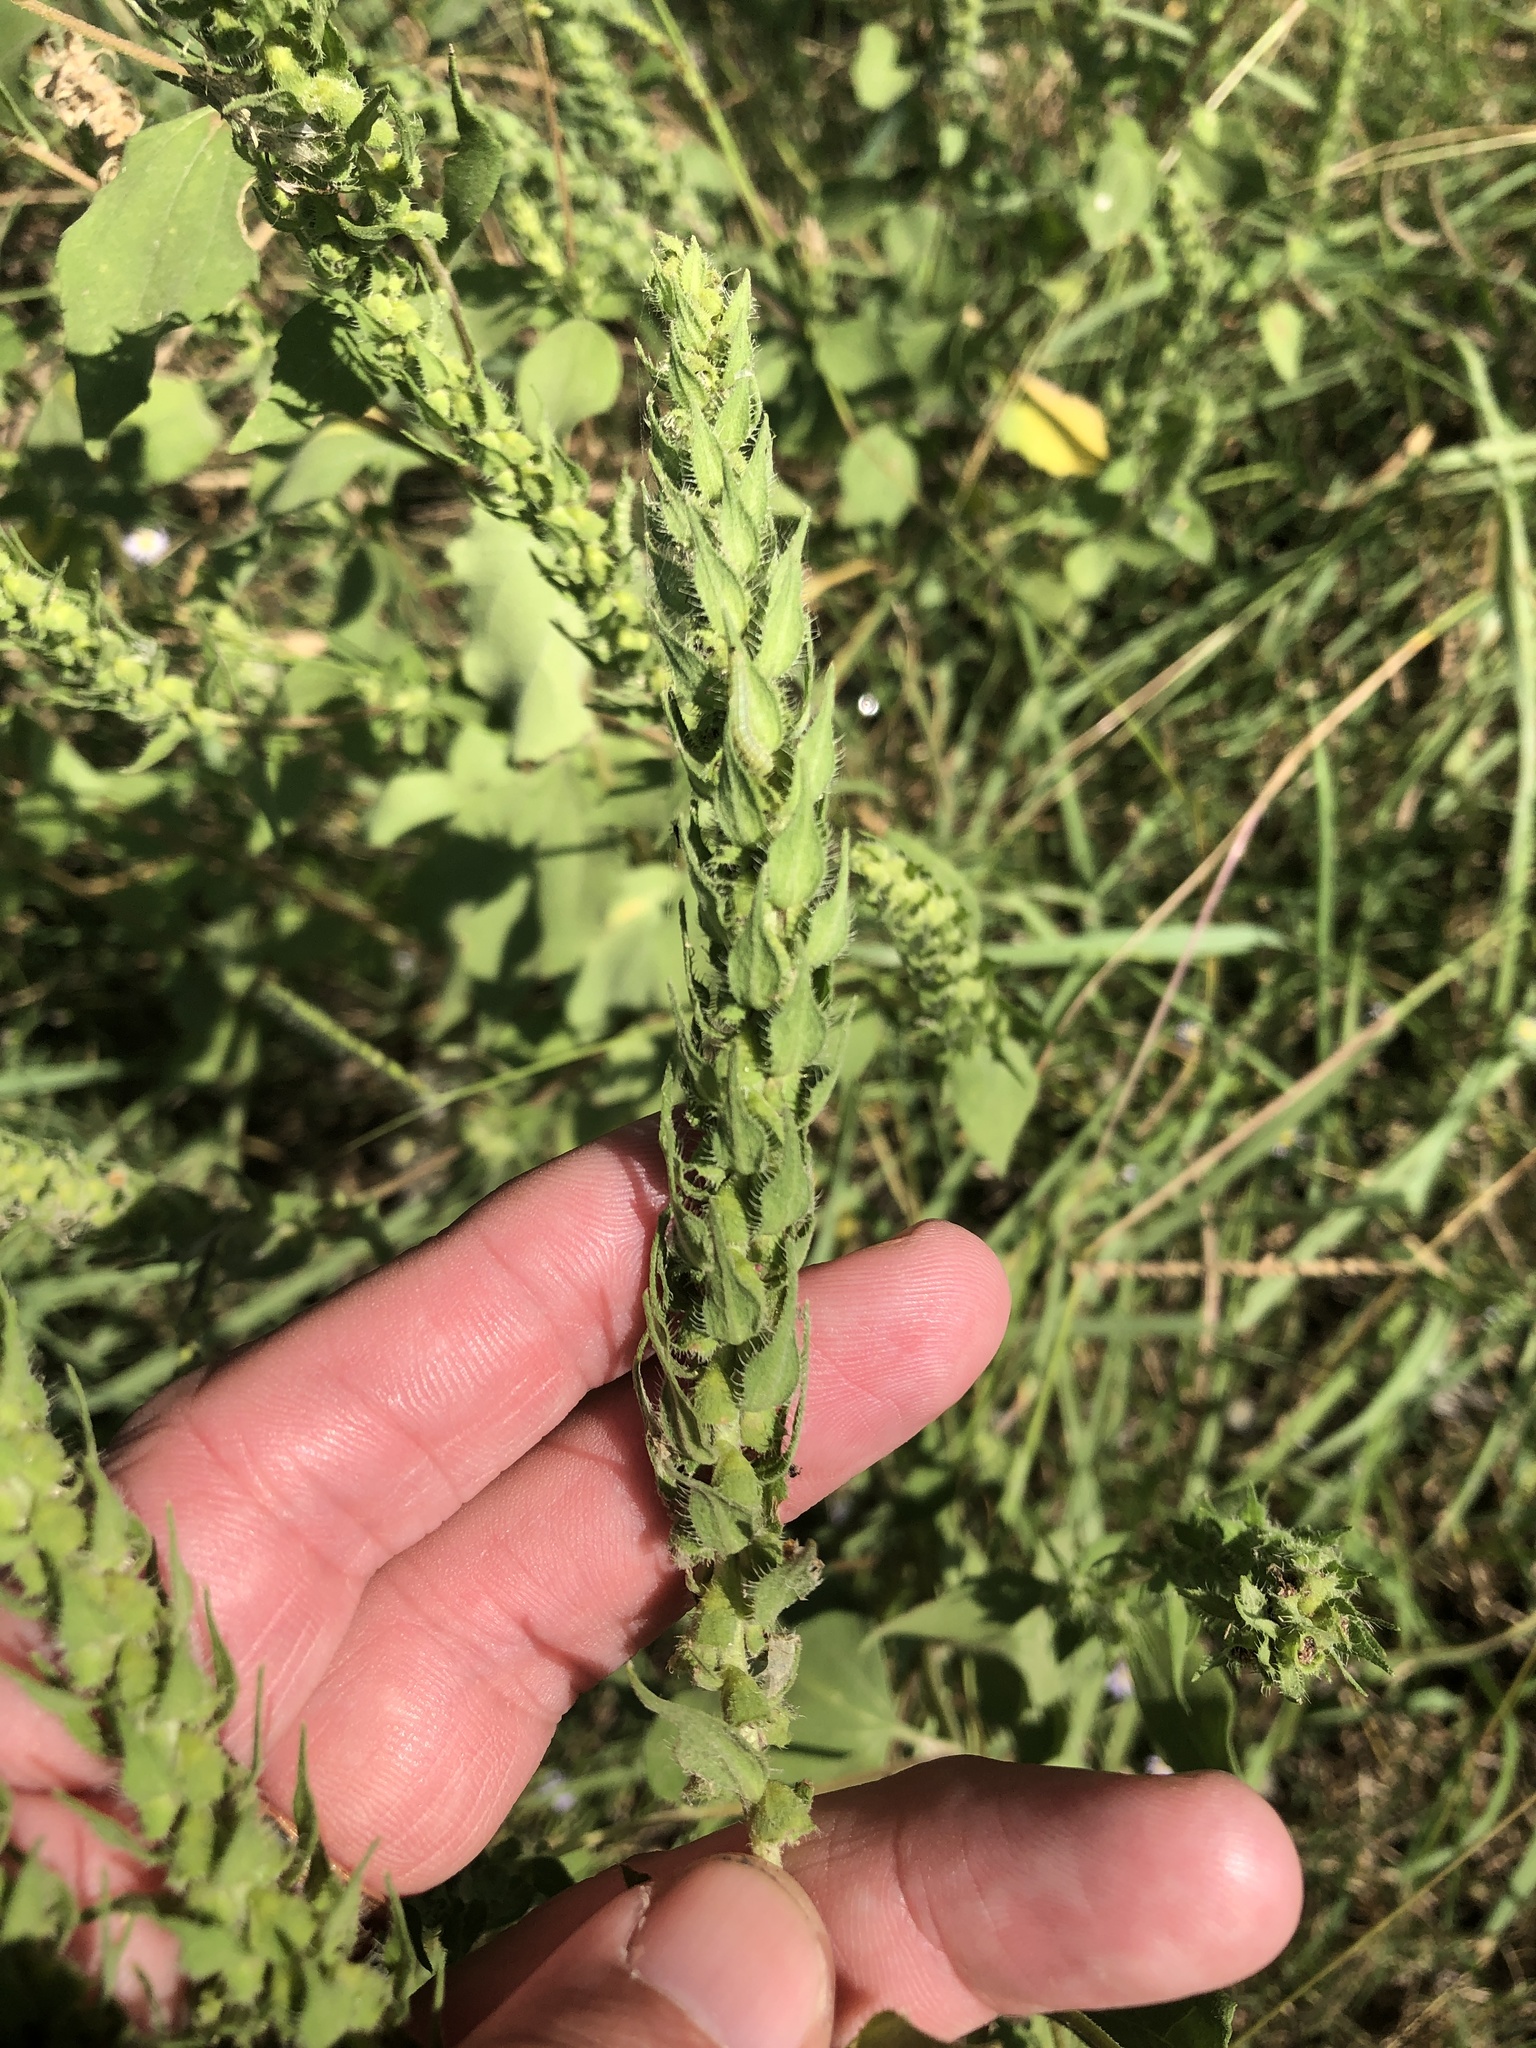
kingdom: Plantae
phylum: Tracheophyta
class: Magnoliopsida
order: Asterales
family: Asteraceae
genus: Iva
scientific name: Iva annua
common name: Marsh-elder
